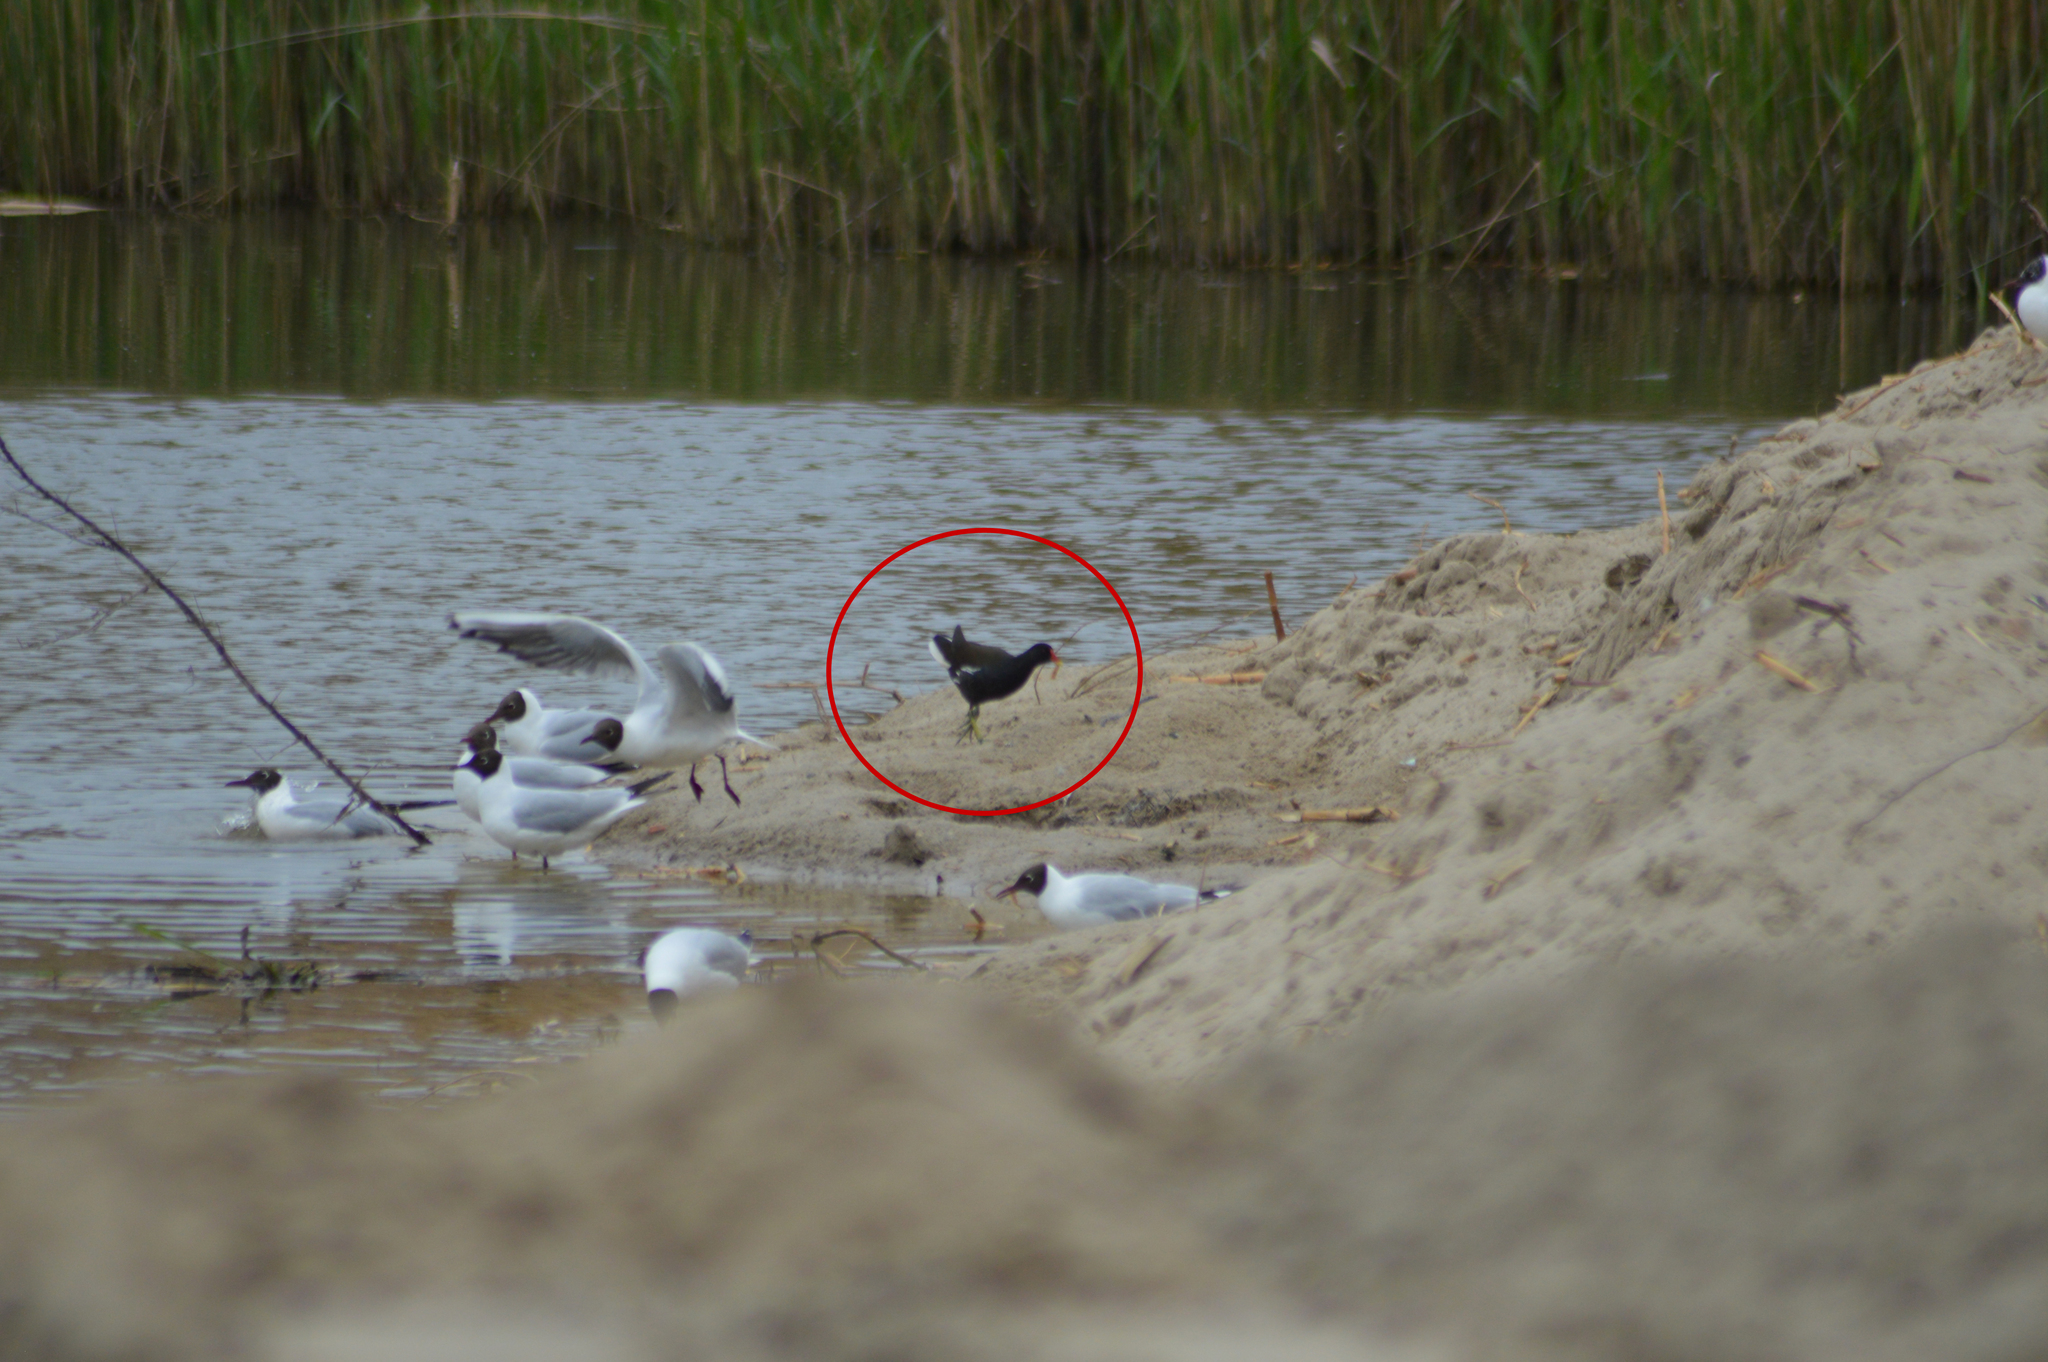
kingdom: Animalia
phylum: Chordata
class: Aves
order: Gruiformes
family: Rallidae
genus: Gallinula
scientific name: Gallinula chloropus
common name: Common moorhen
